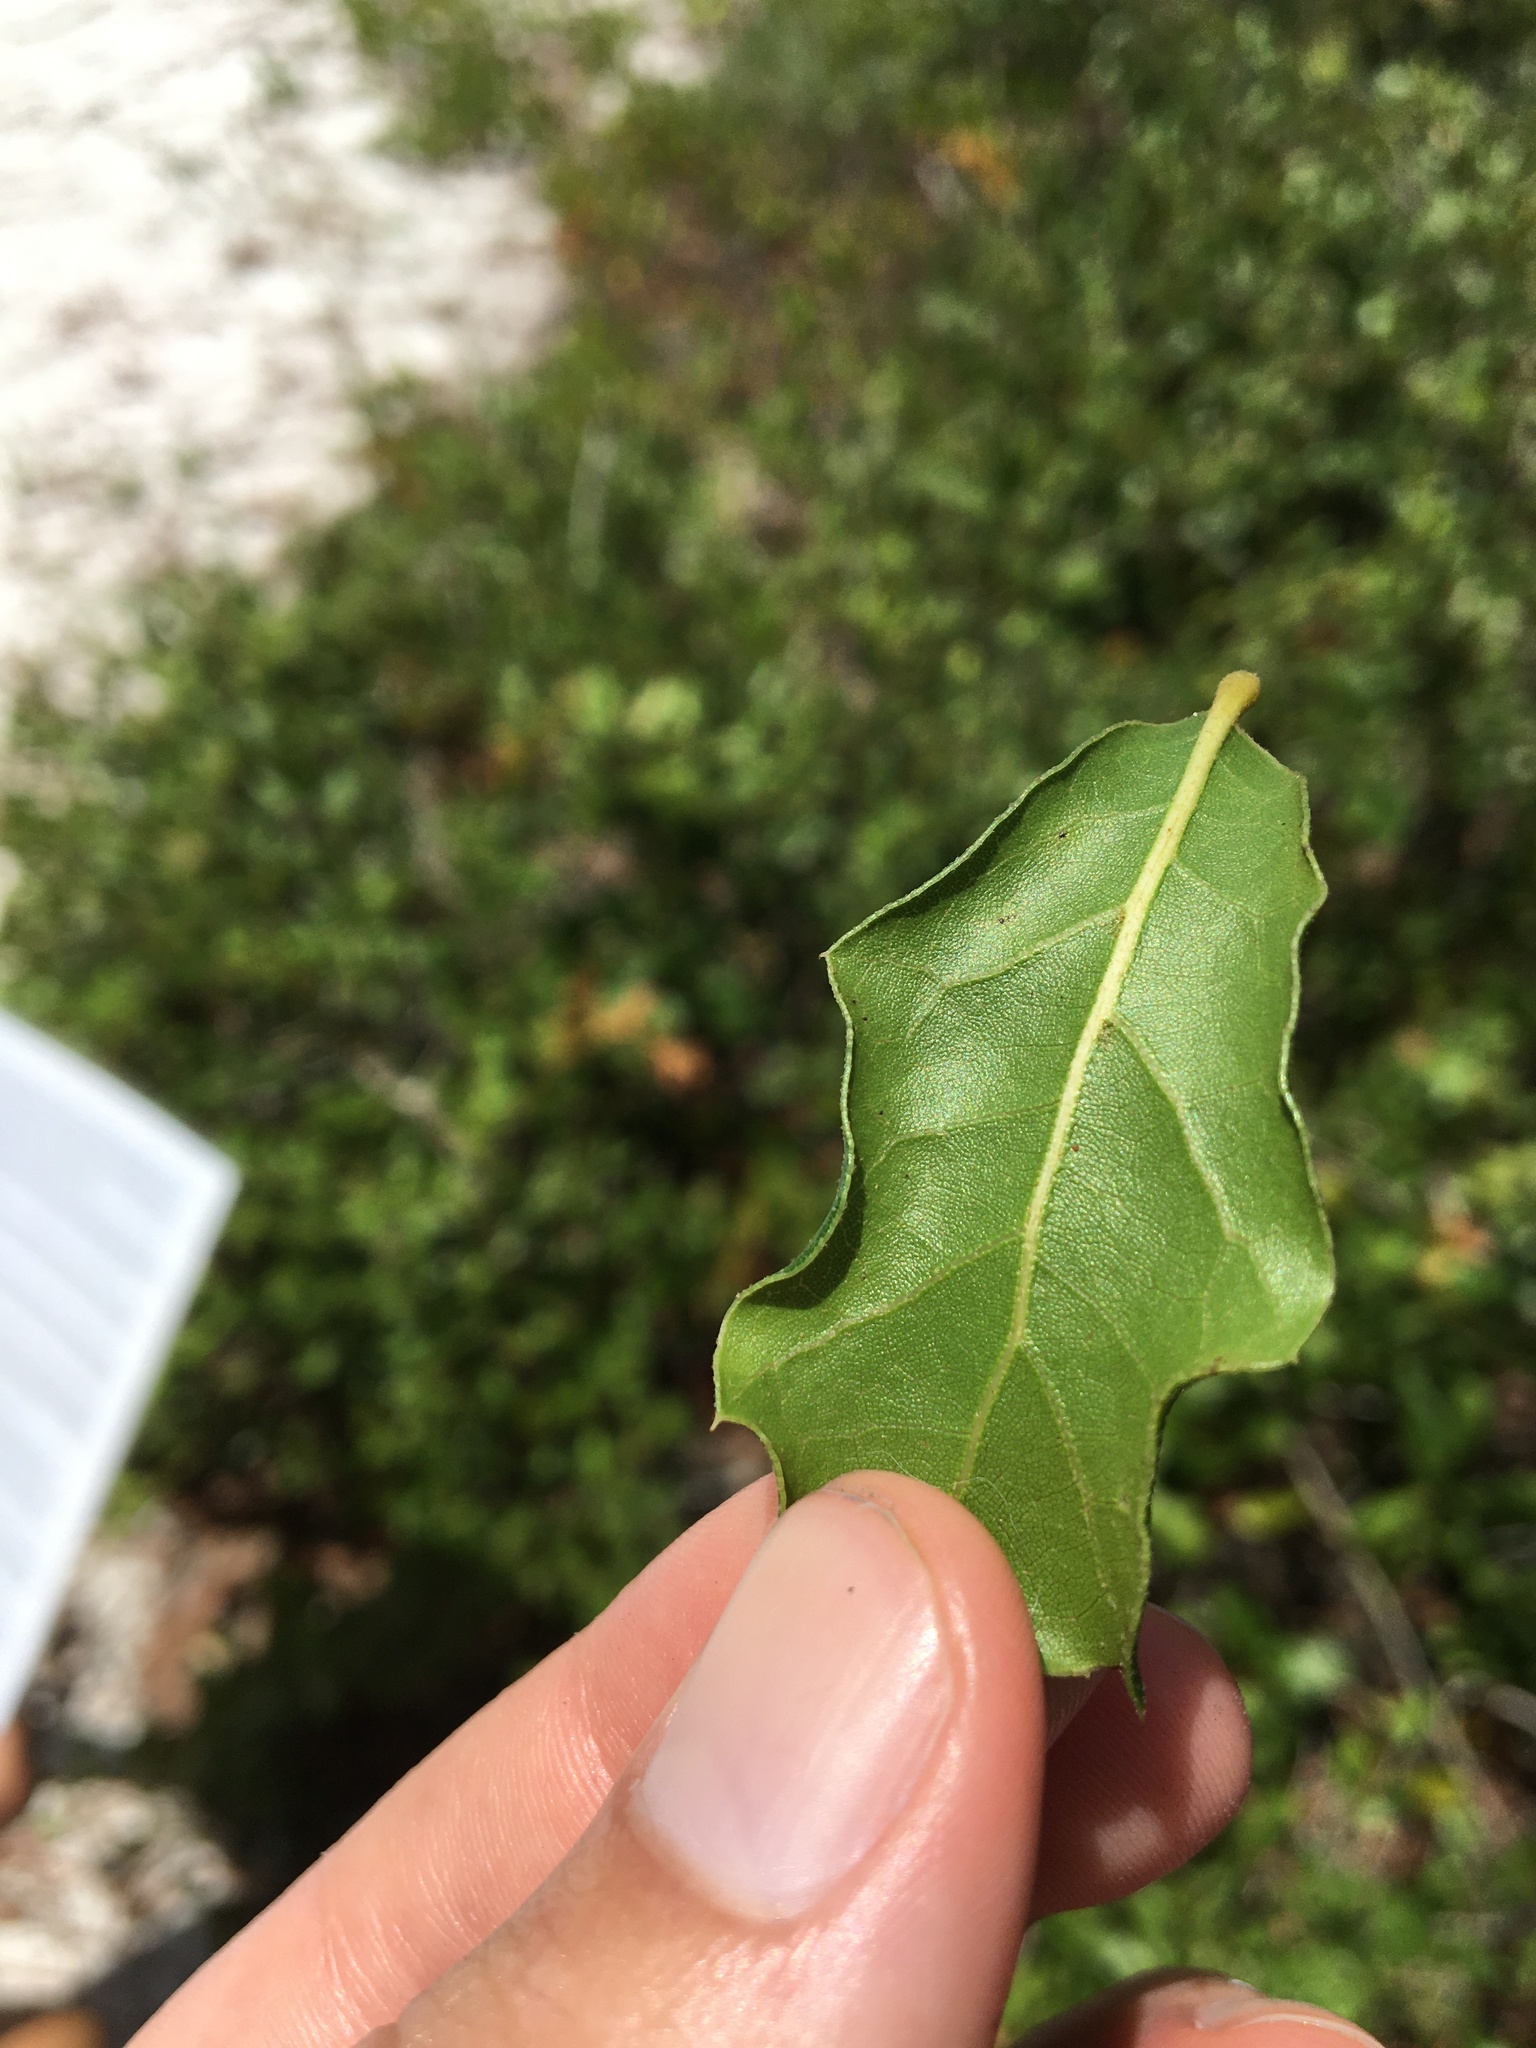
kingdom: Plantae
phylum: Tracheophyta
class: Magnoliopsida
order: Fagales
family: Fagaceae
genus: Quercus
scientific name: Quercus myrtifolia
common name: Myrtle oak
